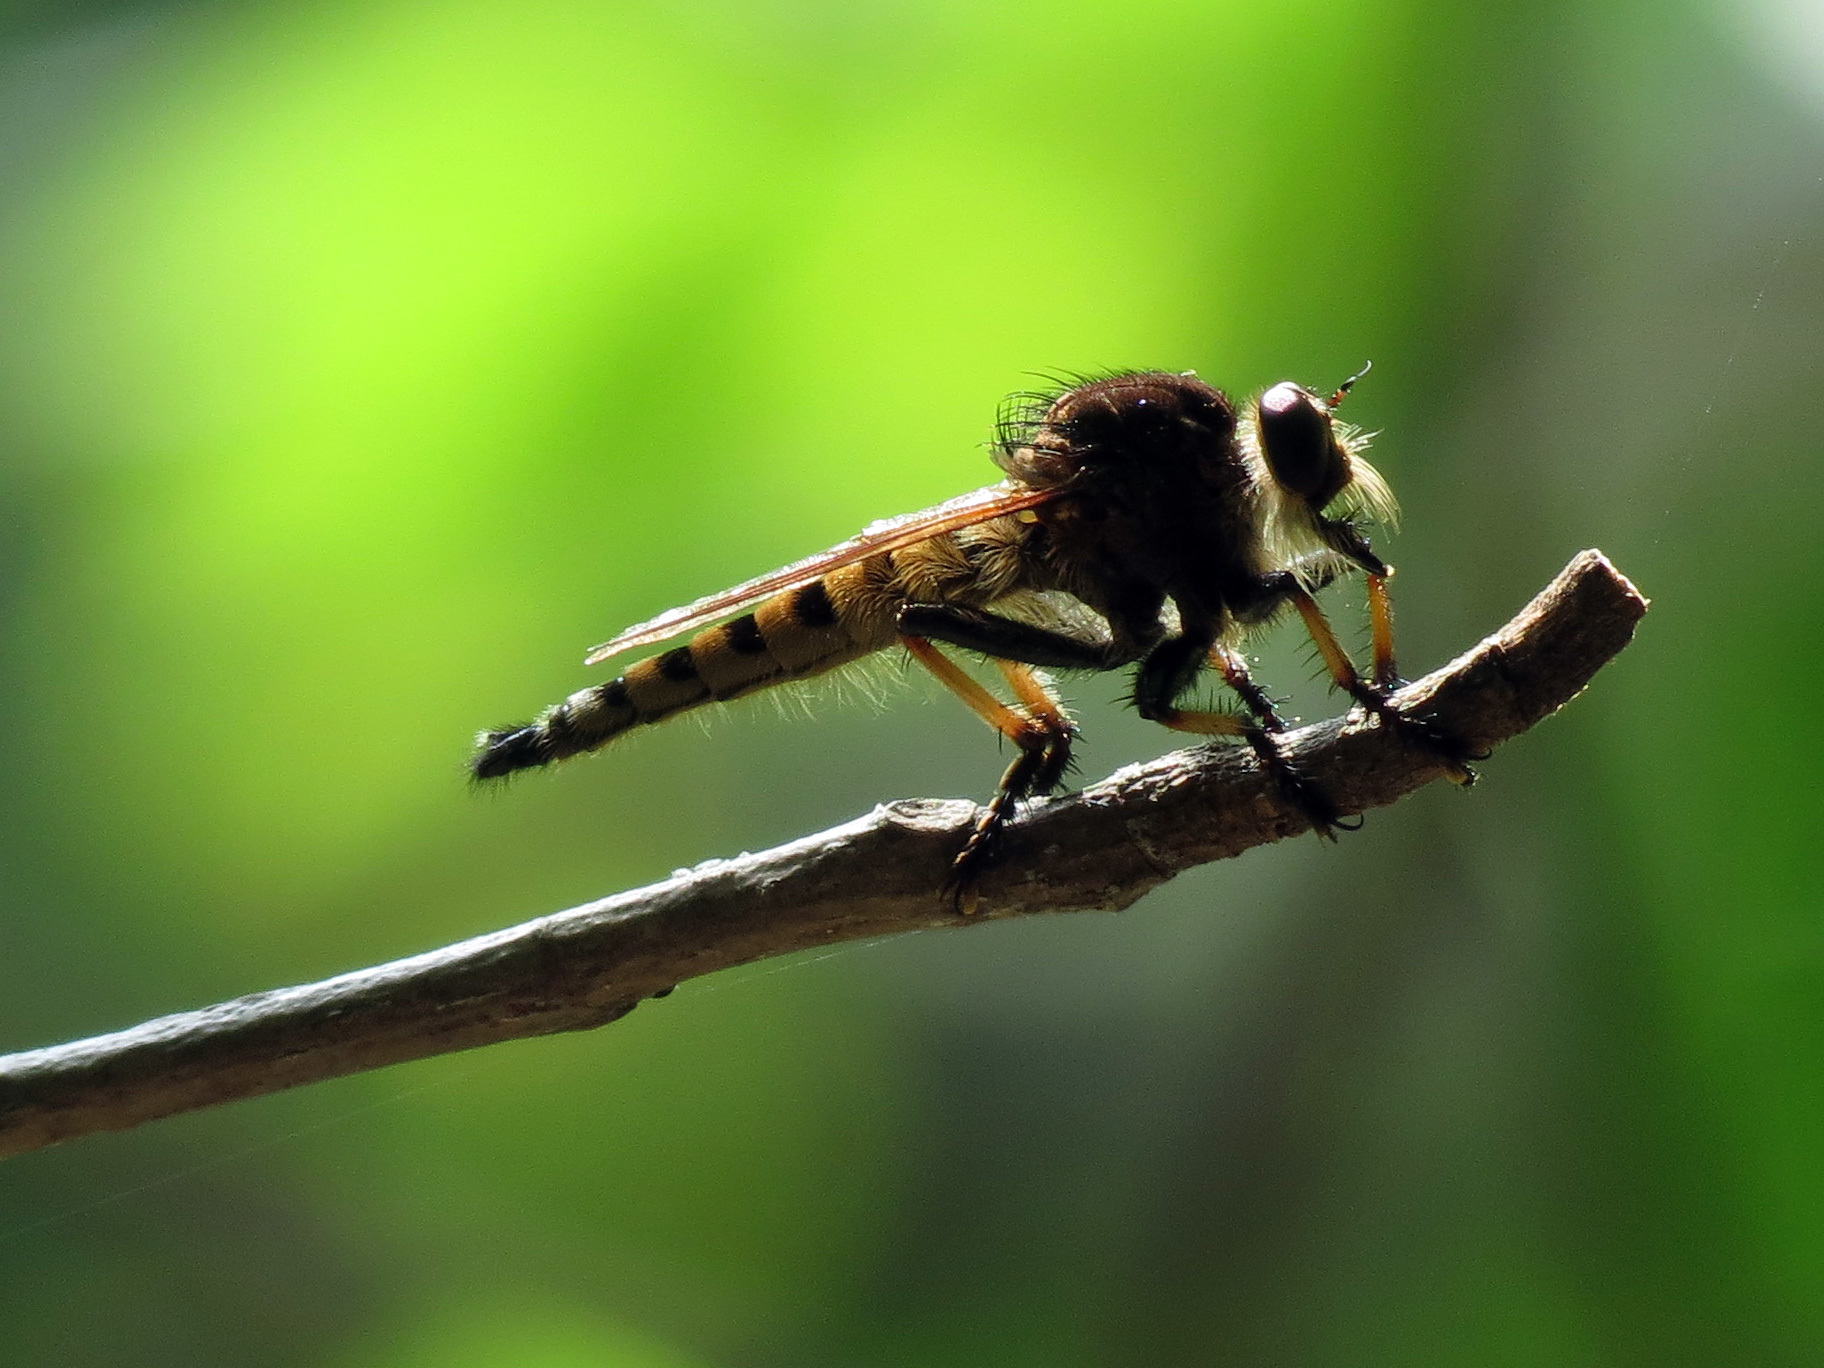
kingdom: Animalia
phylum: Arthropoda
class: Insecta
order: Diptera
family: Asilidae
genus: Promachus
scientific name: Promachus rufipes
